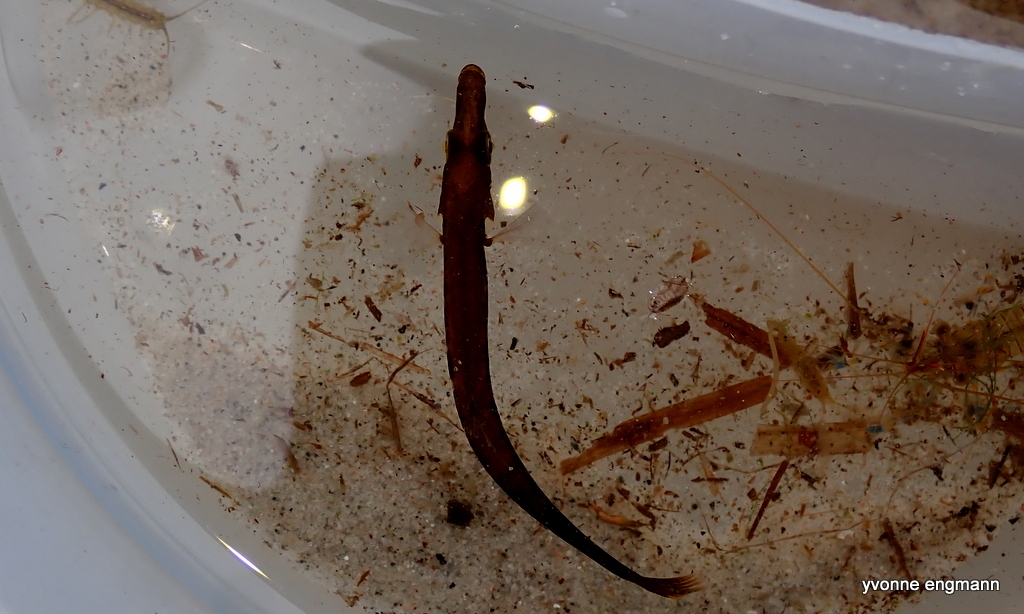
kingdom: Animalia
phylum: Chordata
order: Gasterosteiformes
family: Gasterosteidae
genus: Spinachia
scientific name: Spinachia spinachia
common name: Fifteen-spined stickleback
